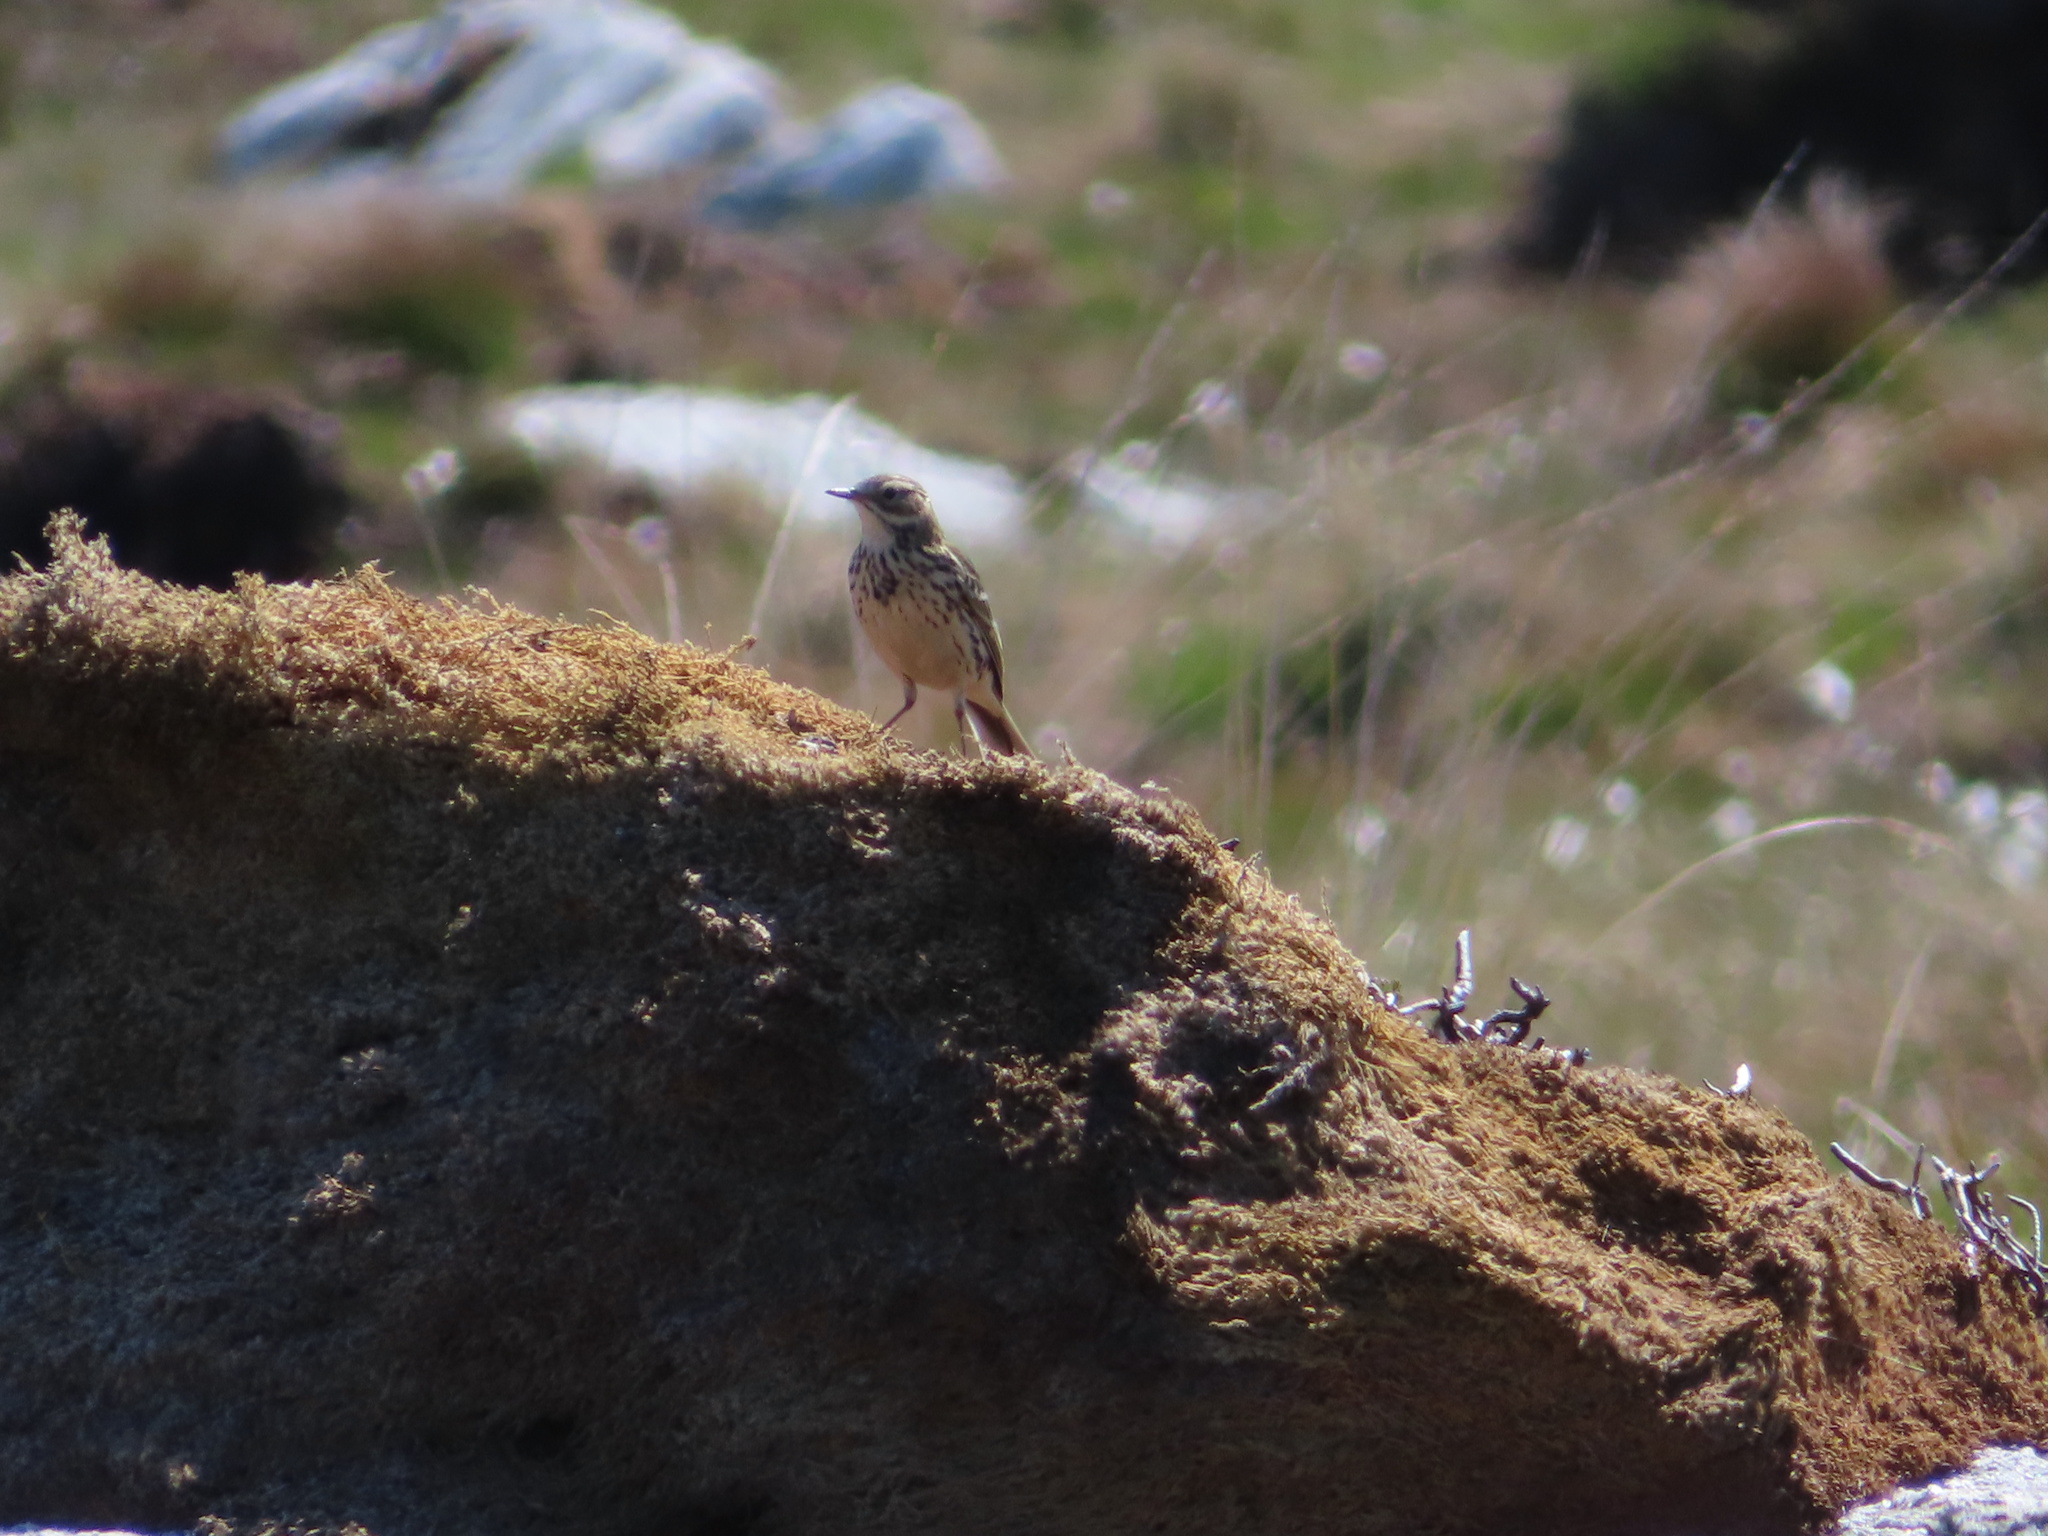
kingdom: Animalia
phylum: Chordata
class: Aves
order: Passeriformes
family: Motacillidae
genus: Anthus
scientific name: Anthus pratensis
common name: Meadow pipit
